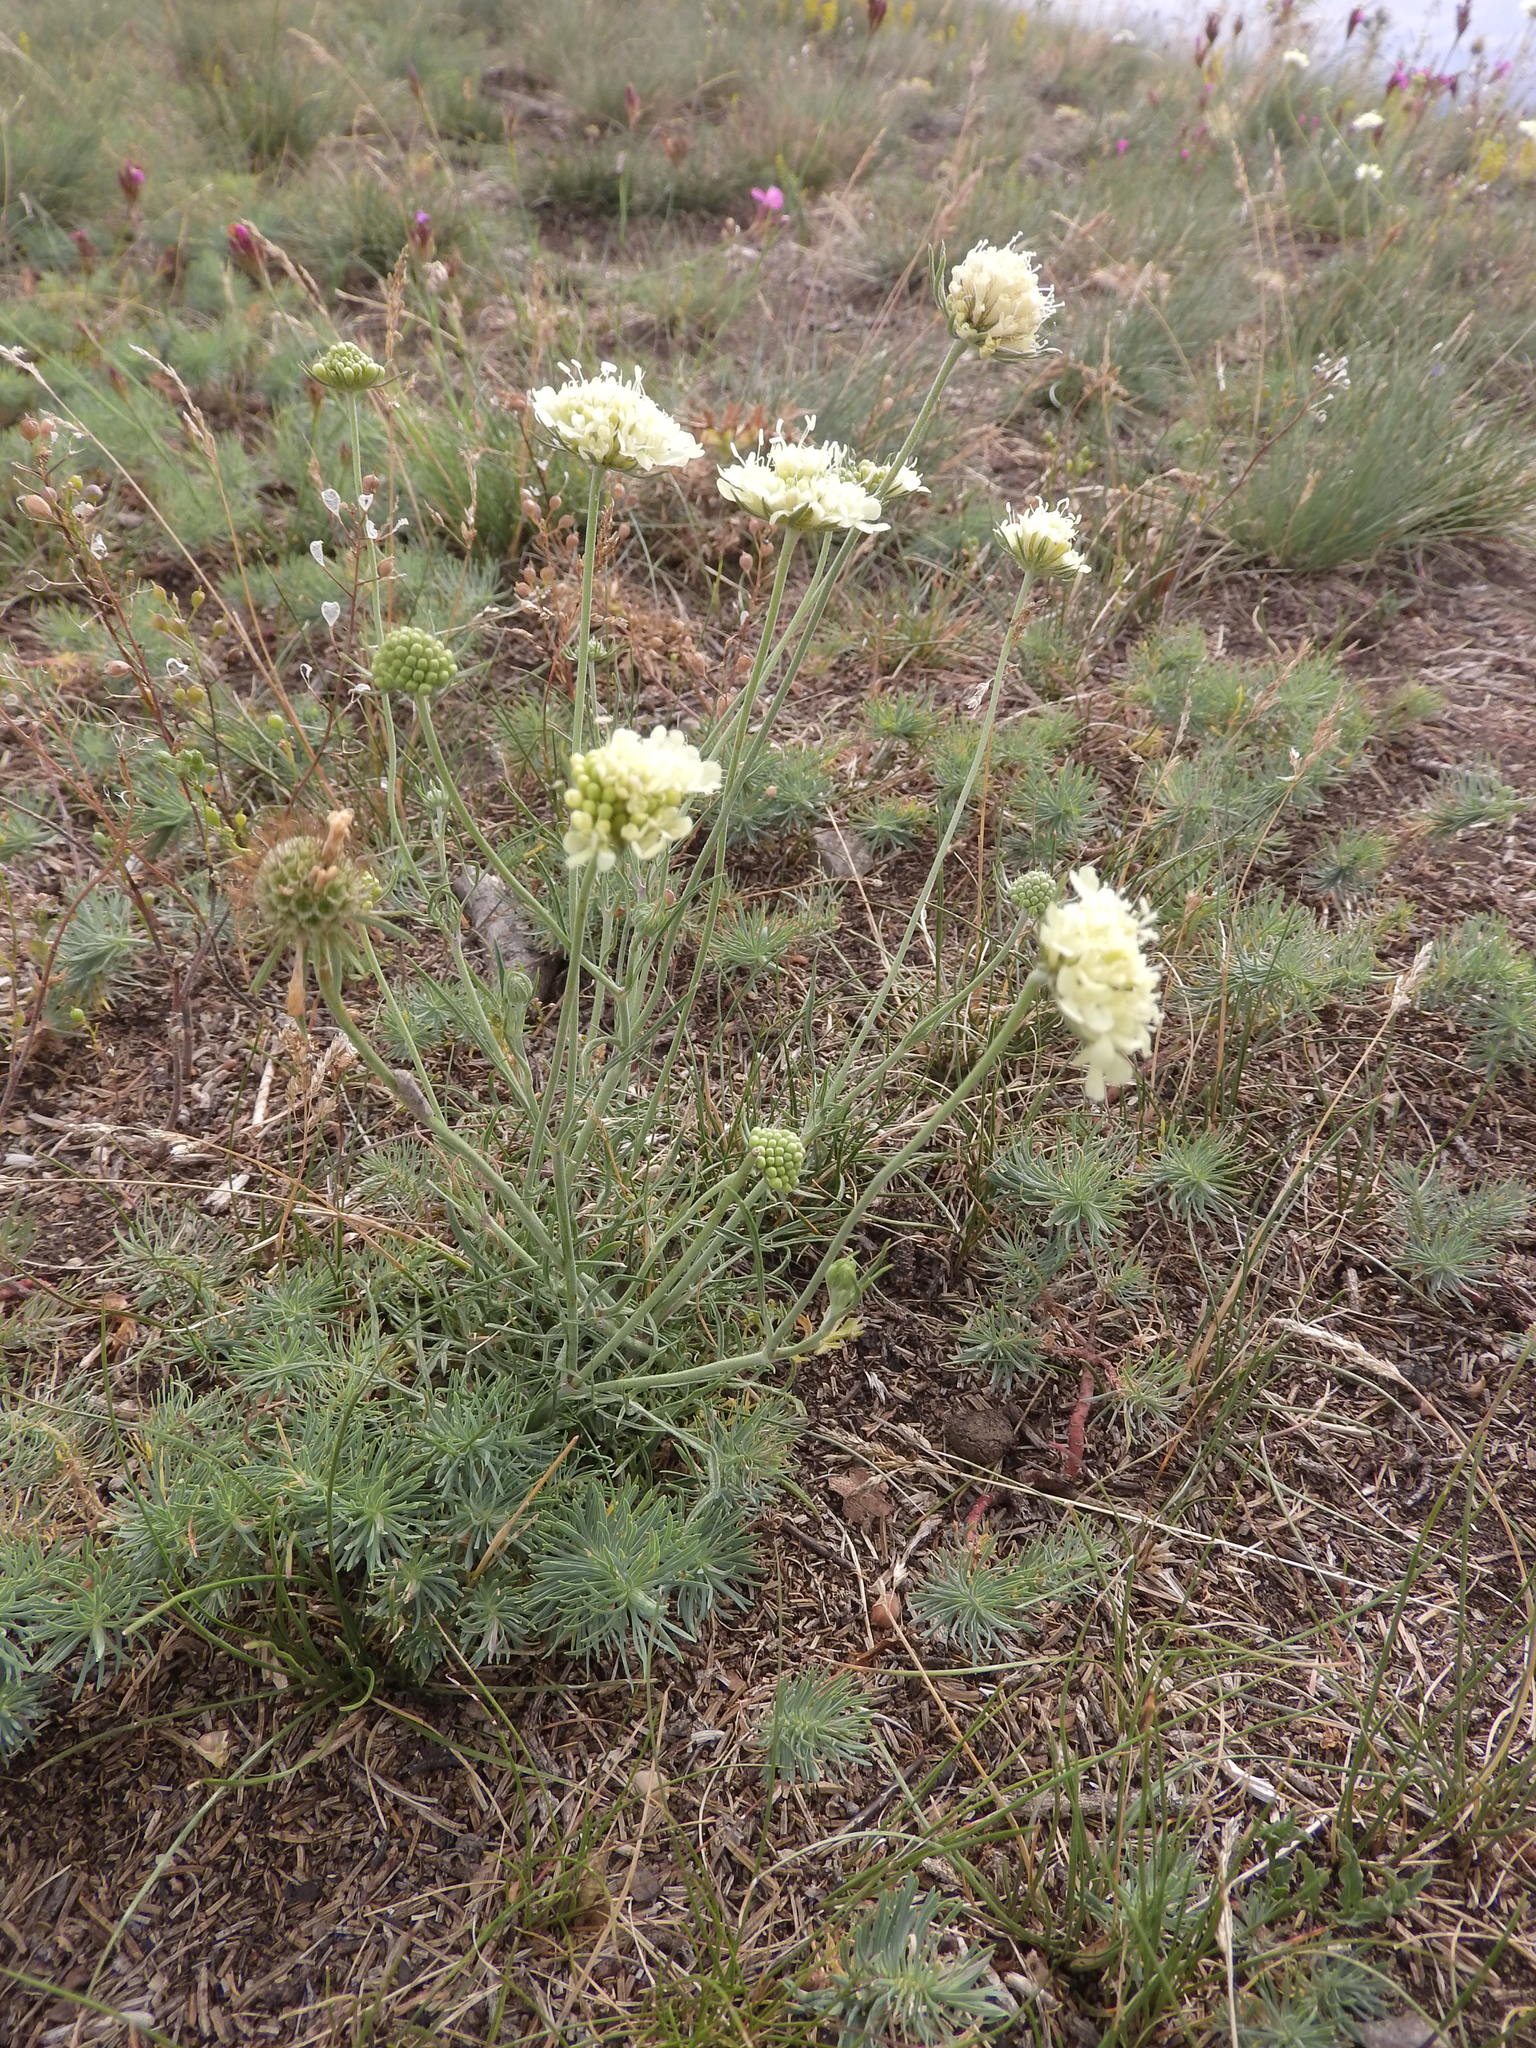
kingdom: Plantae
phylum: Tracheophyta
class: Magnoliopsida
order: Dipsacales
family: Caprifoliaceae
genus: Scabiosa
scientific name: Scabiosa ochroleuca
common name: Cream pincushions
